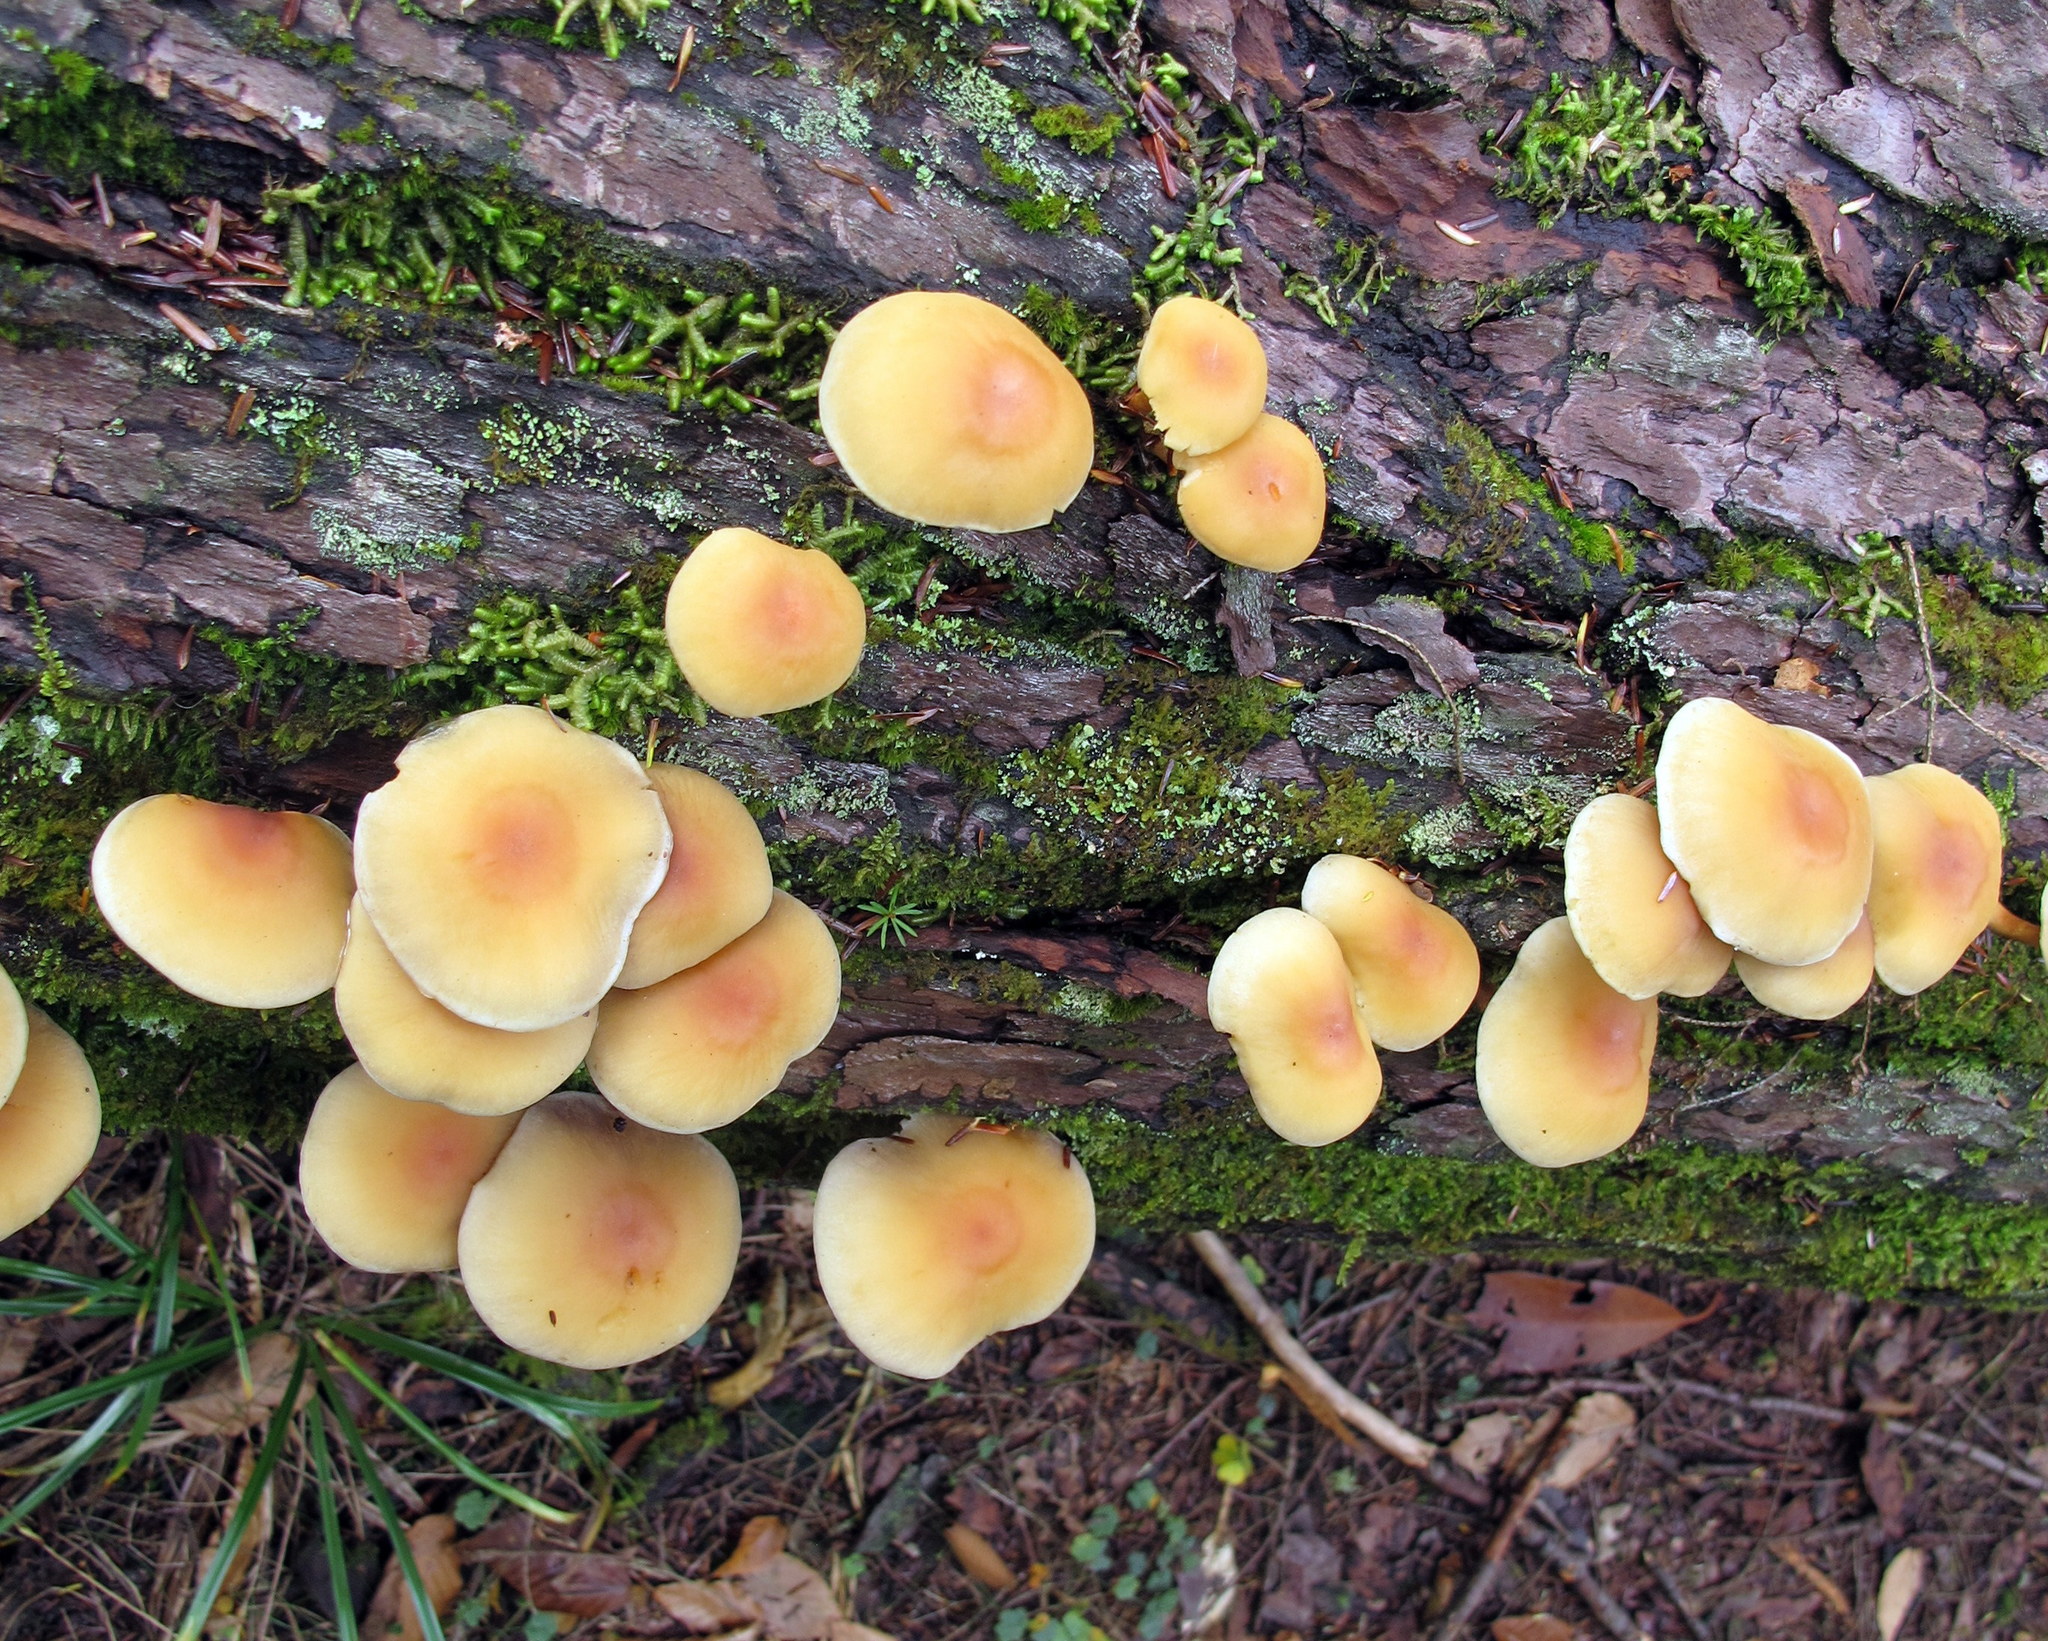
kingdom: Fungi
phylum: Basidiomycota
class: Agaricomycetes
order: Agaricales
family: Strophariaceae
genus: Hypholoma
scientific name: Hypholoma capnoides
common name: Conifer tuft
